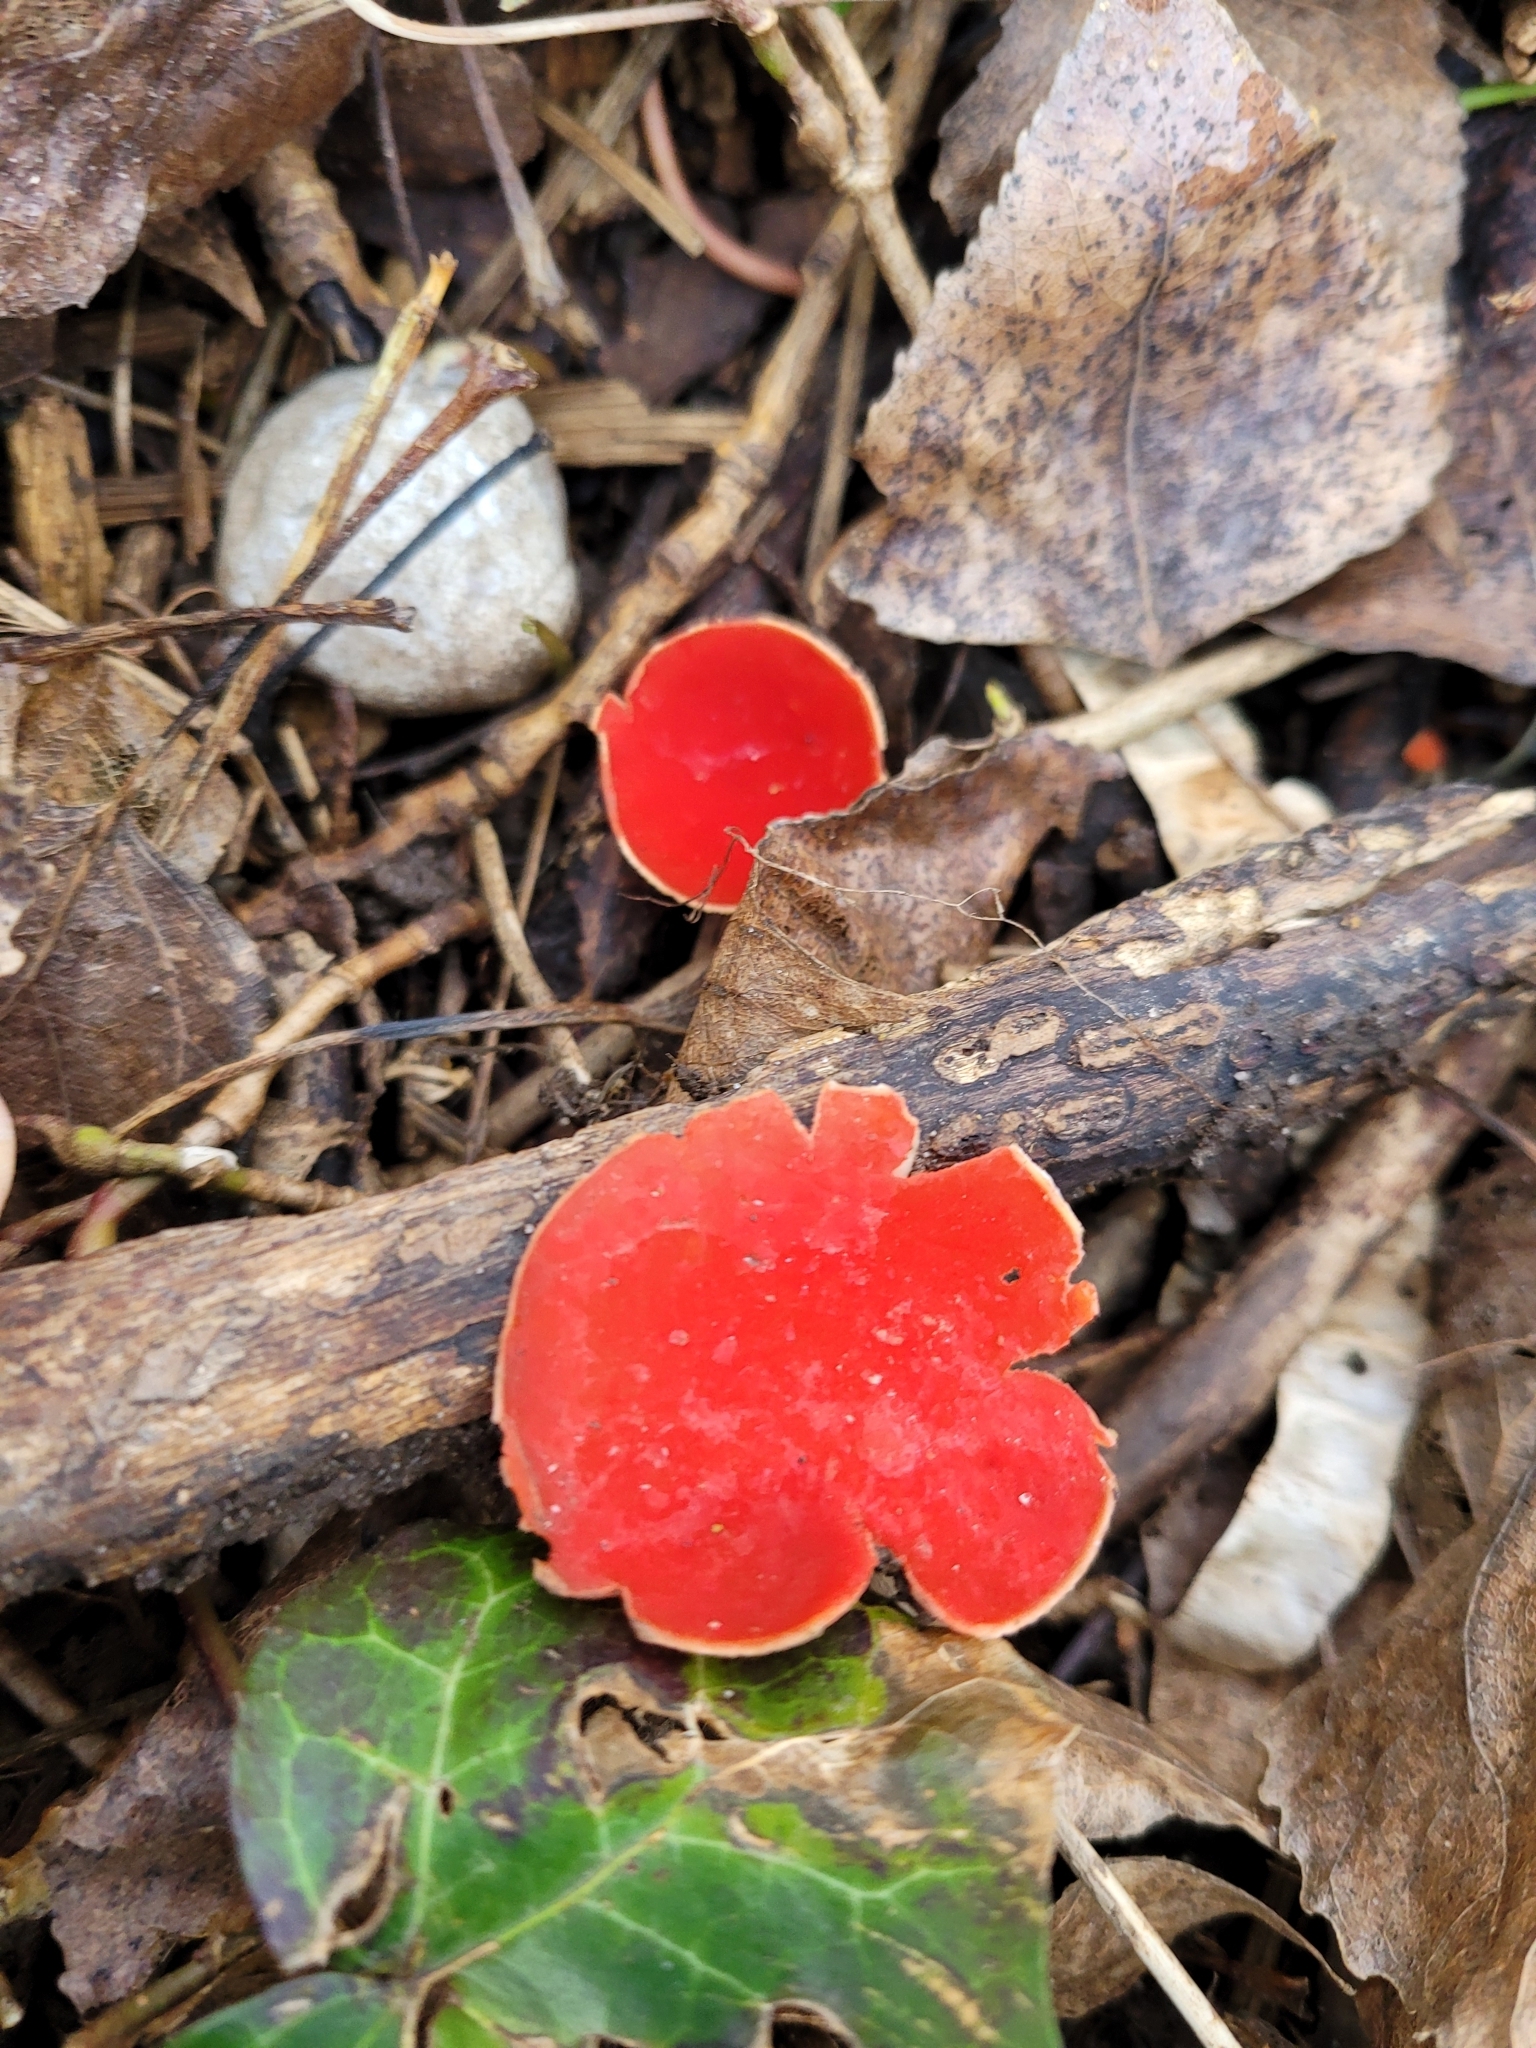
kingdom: Fungi
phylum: Ascomycota
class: Pezizomycetes
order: Pezizales
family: Sarcoscyphaceae
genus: Sarcoscypha
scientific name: Sarcoscypha
